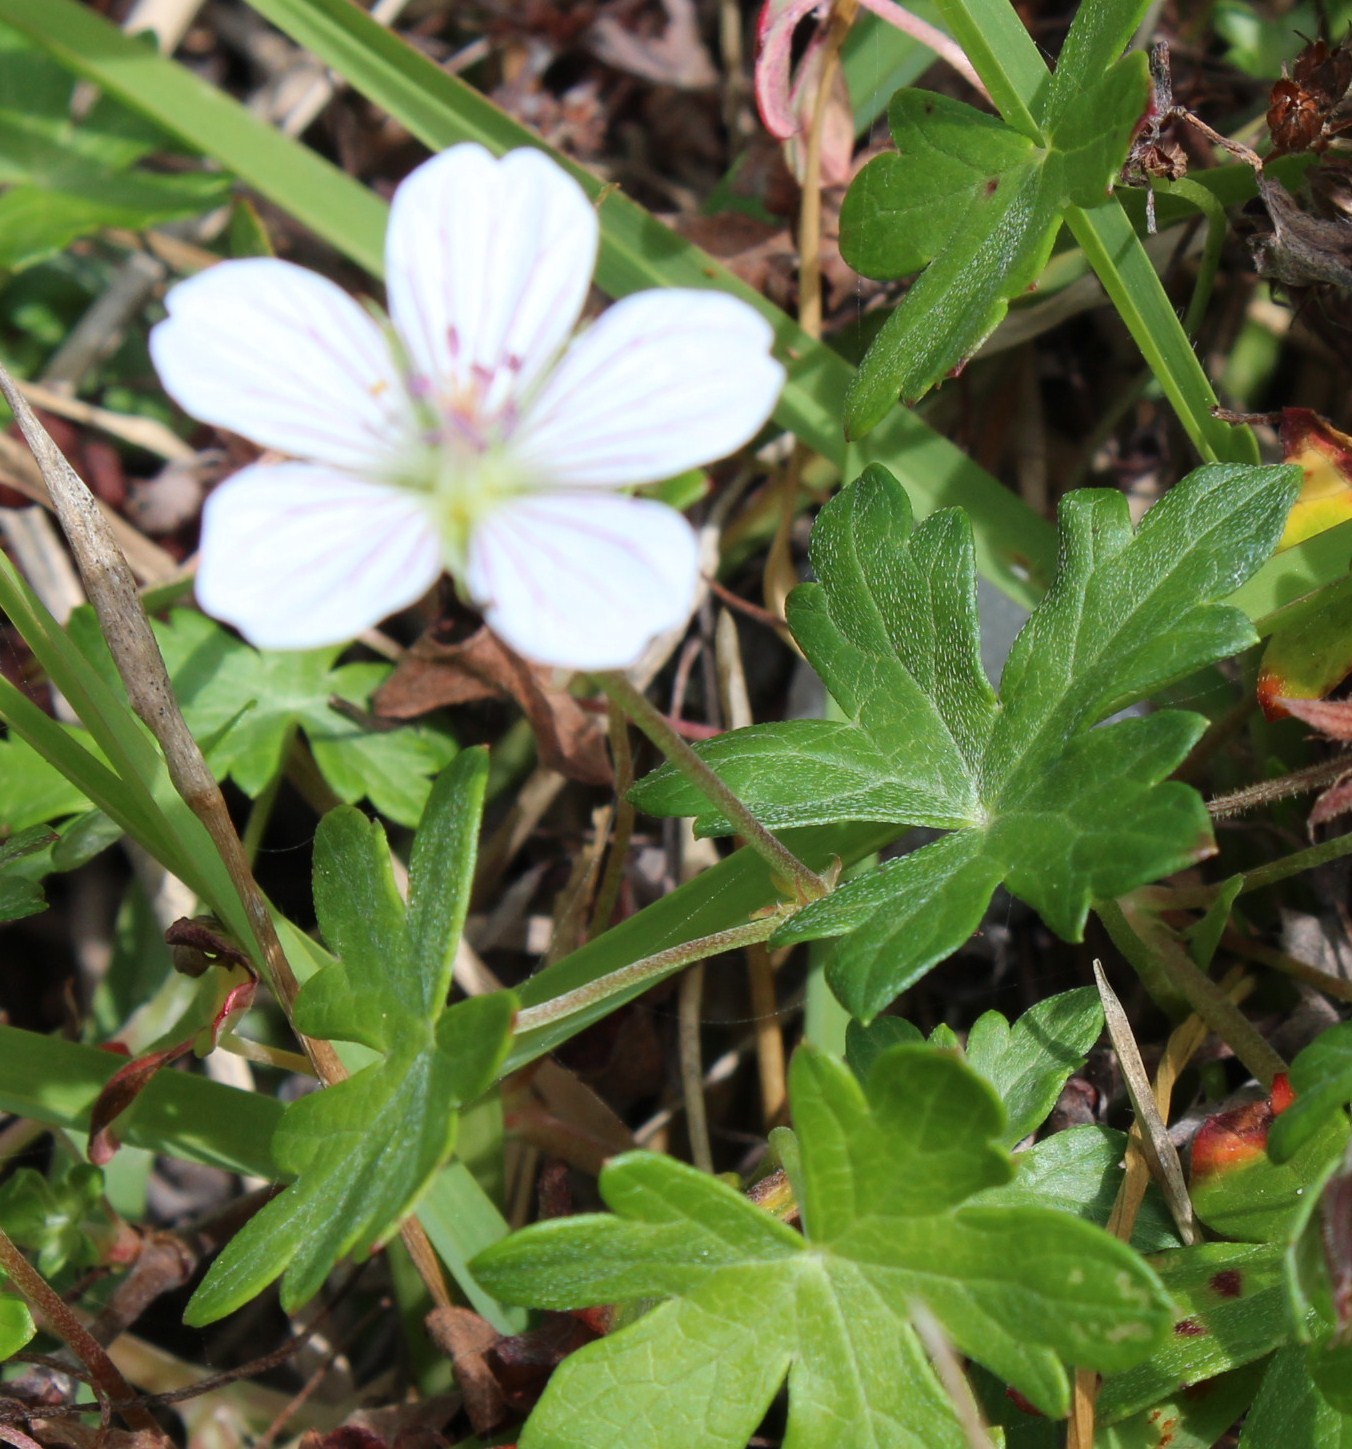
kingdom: Plantae
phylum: Tracheophyta
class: Magnoliopsida
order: Geraniales
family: Geraniaceae
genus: Geranium
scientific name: Geranium ornithopodon
